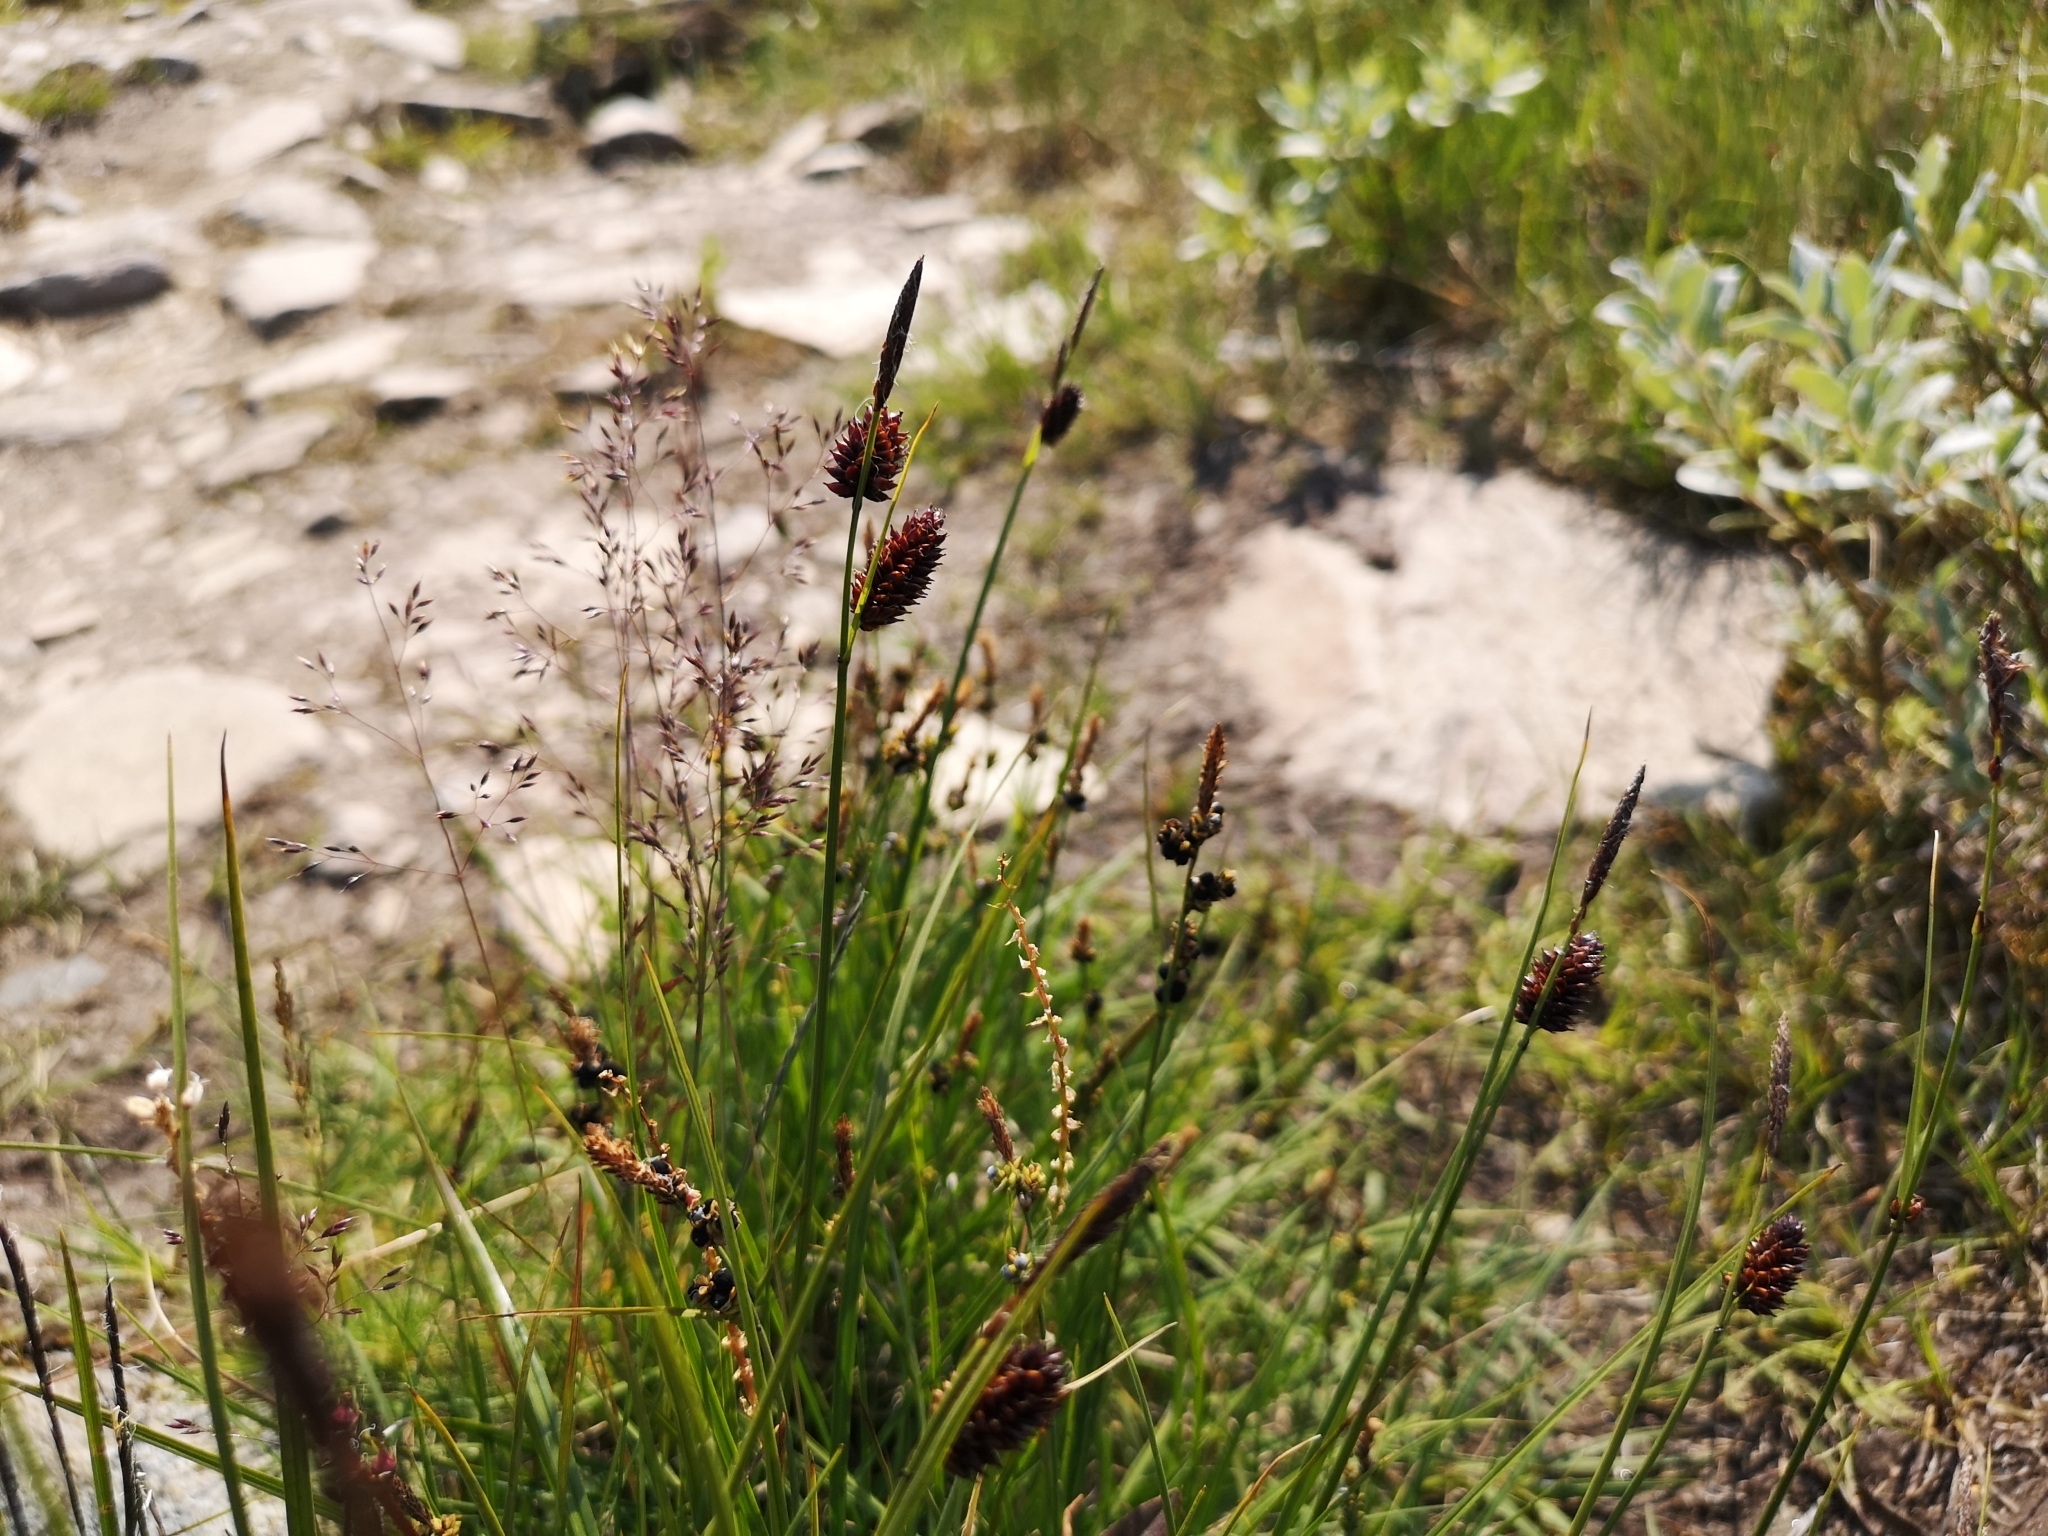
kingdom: Plantae
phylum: Tracheophyta
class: Liliopsida
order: Poales
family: Cyperaceae
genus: Carex
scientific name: Carex saxatilis
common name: Russet sedge
